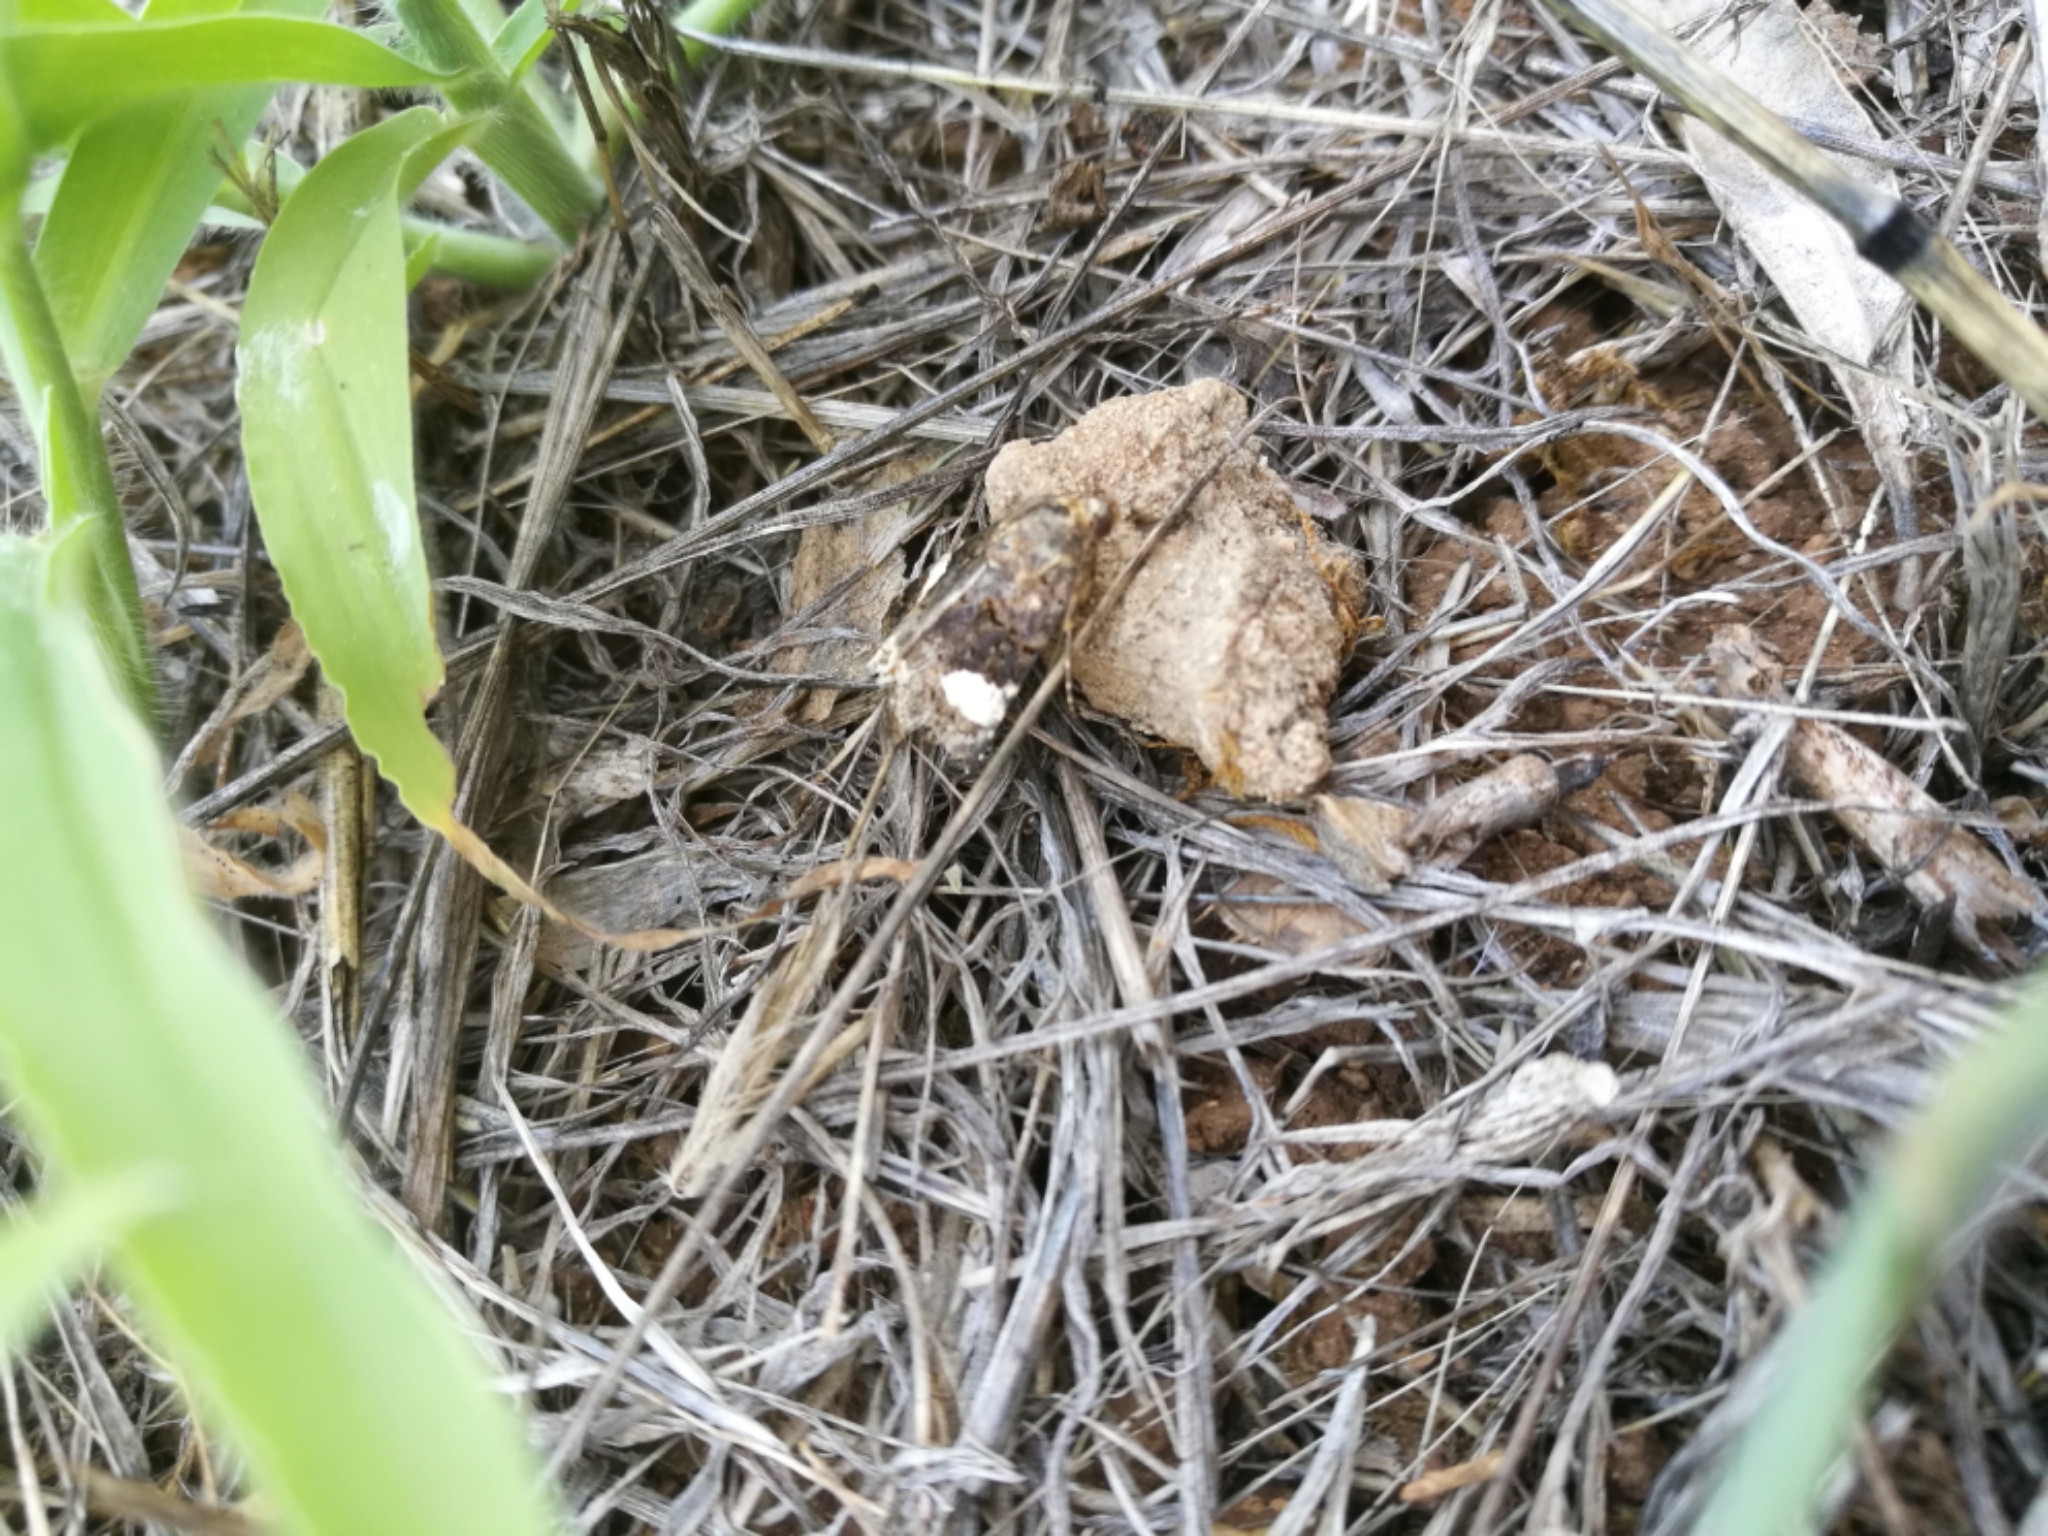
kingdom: Animalia
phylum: Arthropoda
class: Insecta
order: Lepidoptera
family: Erebidae
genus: Tyta
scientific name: Tyta luctuosa
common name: Four-spotted
